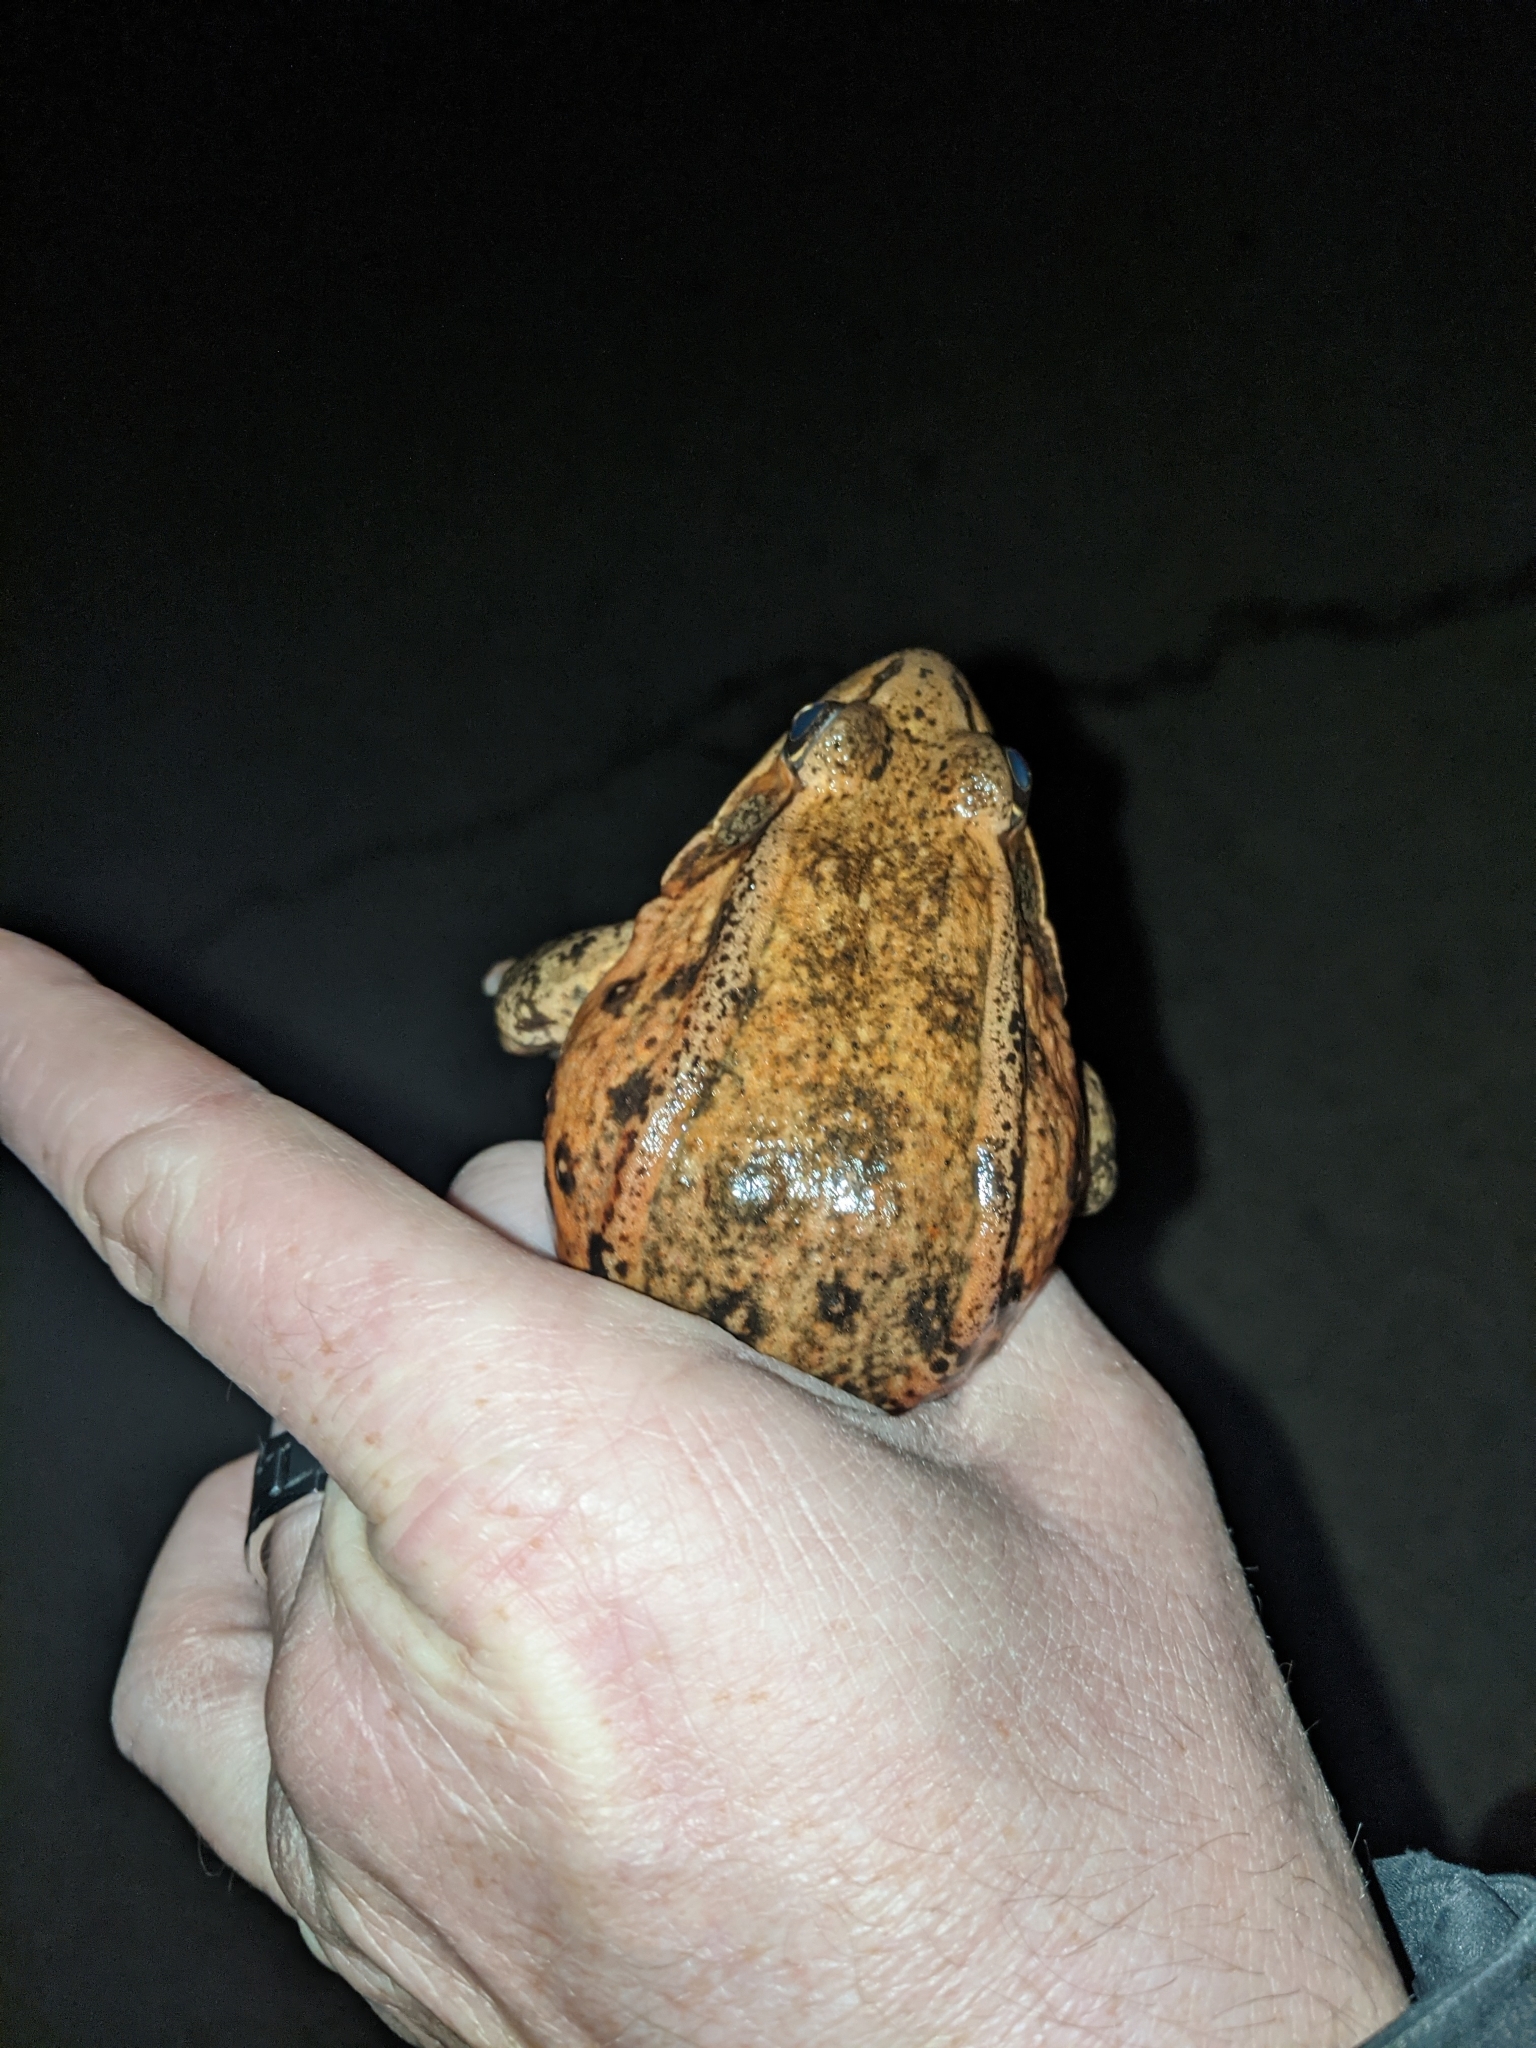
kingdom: Animalia
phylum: Chordata
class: Amphibia
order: Anura
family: Ranidae
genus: Rana
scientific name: Rana draytonii
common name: California red-legged frog
